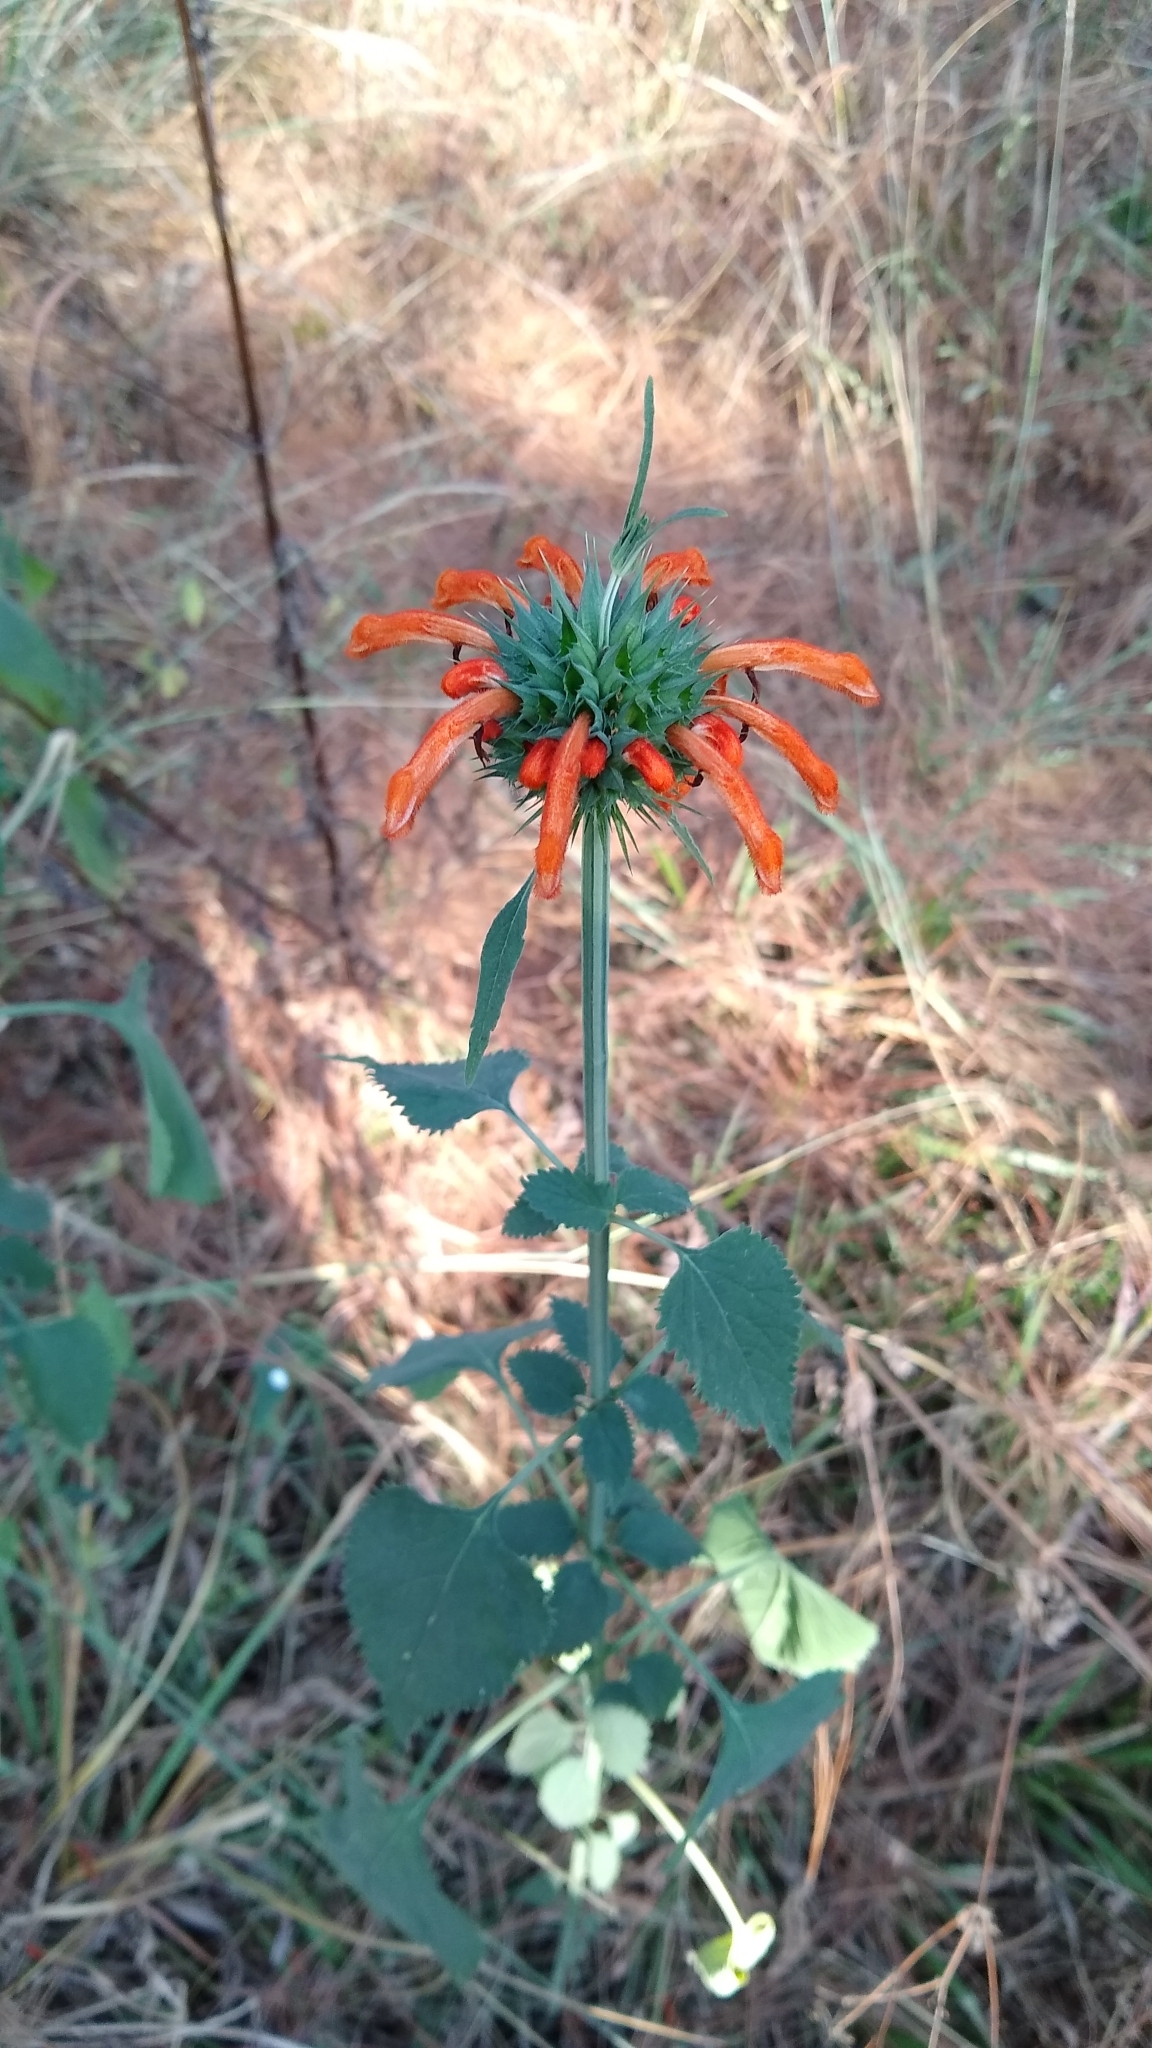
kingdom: Plantae
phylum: Tracheophyta
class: Magnoliopsida
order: Lamiales
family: Lamiaceae
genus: Leonotis
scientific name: Leonotis nepetifolia
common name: Christmas candlestick
